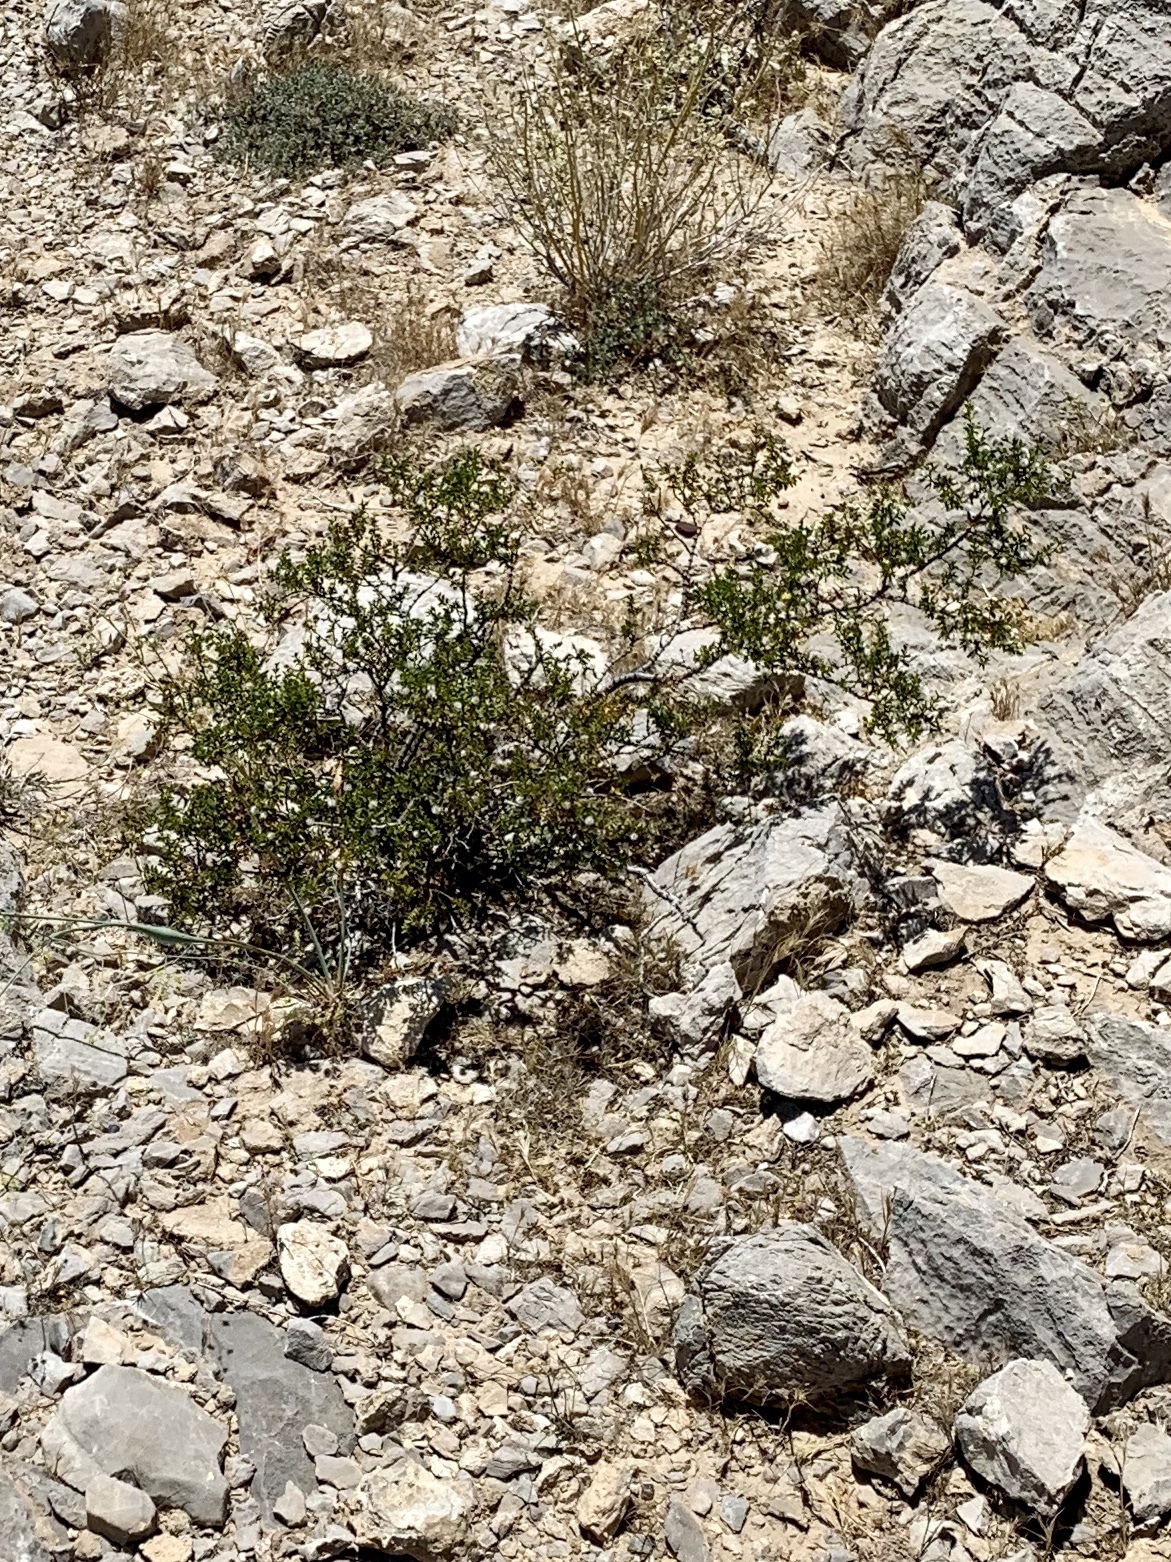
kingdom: Plantae
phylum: Tracheophyta
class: Magnoliopsida
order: Zygophyllales
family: Zygophyllaceae
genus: Larrea
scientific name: Larrea tridentata
